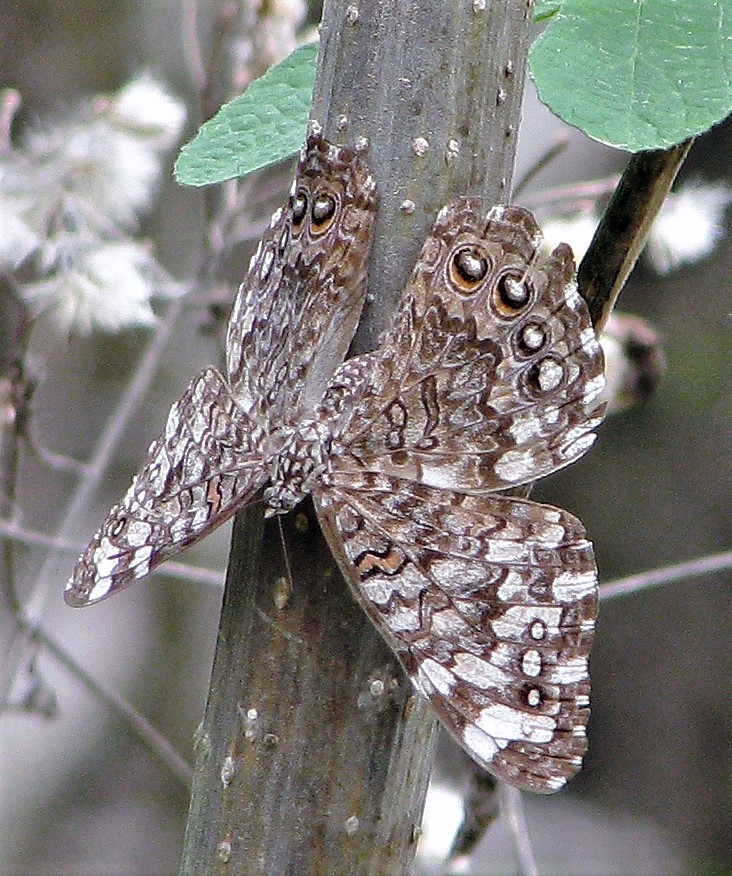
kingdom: Animalia
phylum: Arthropoda
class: Insecta
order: Lepidoptera
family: Nymphalidae
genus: Hamadryas
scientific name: Hamadryas februa
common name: Gray cracker
